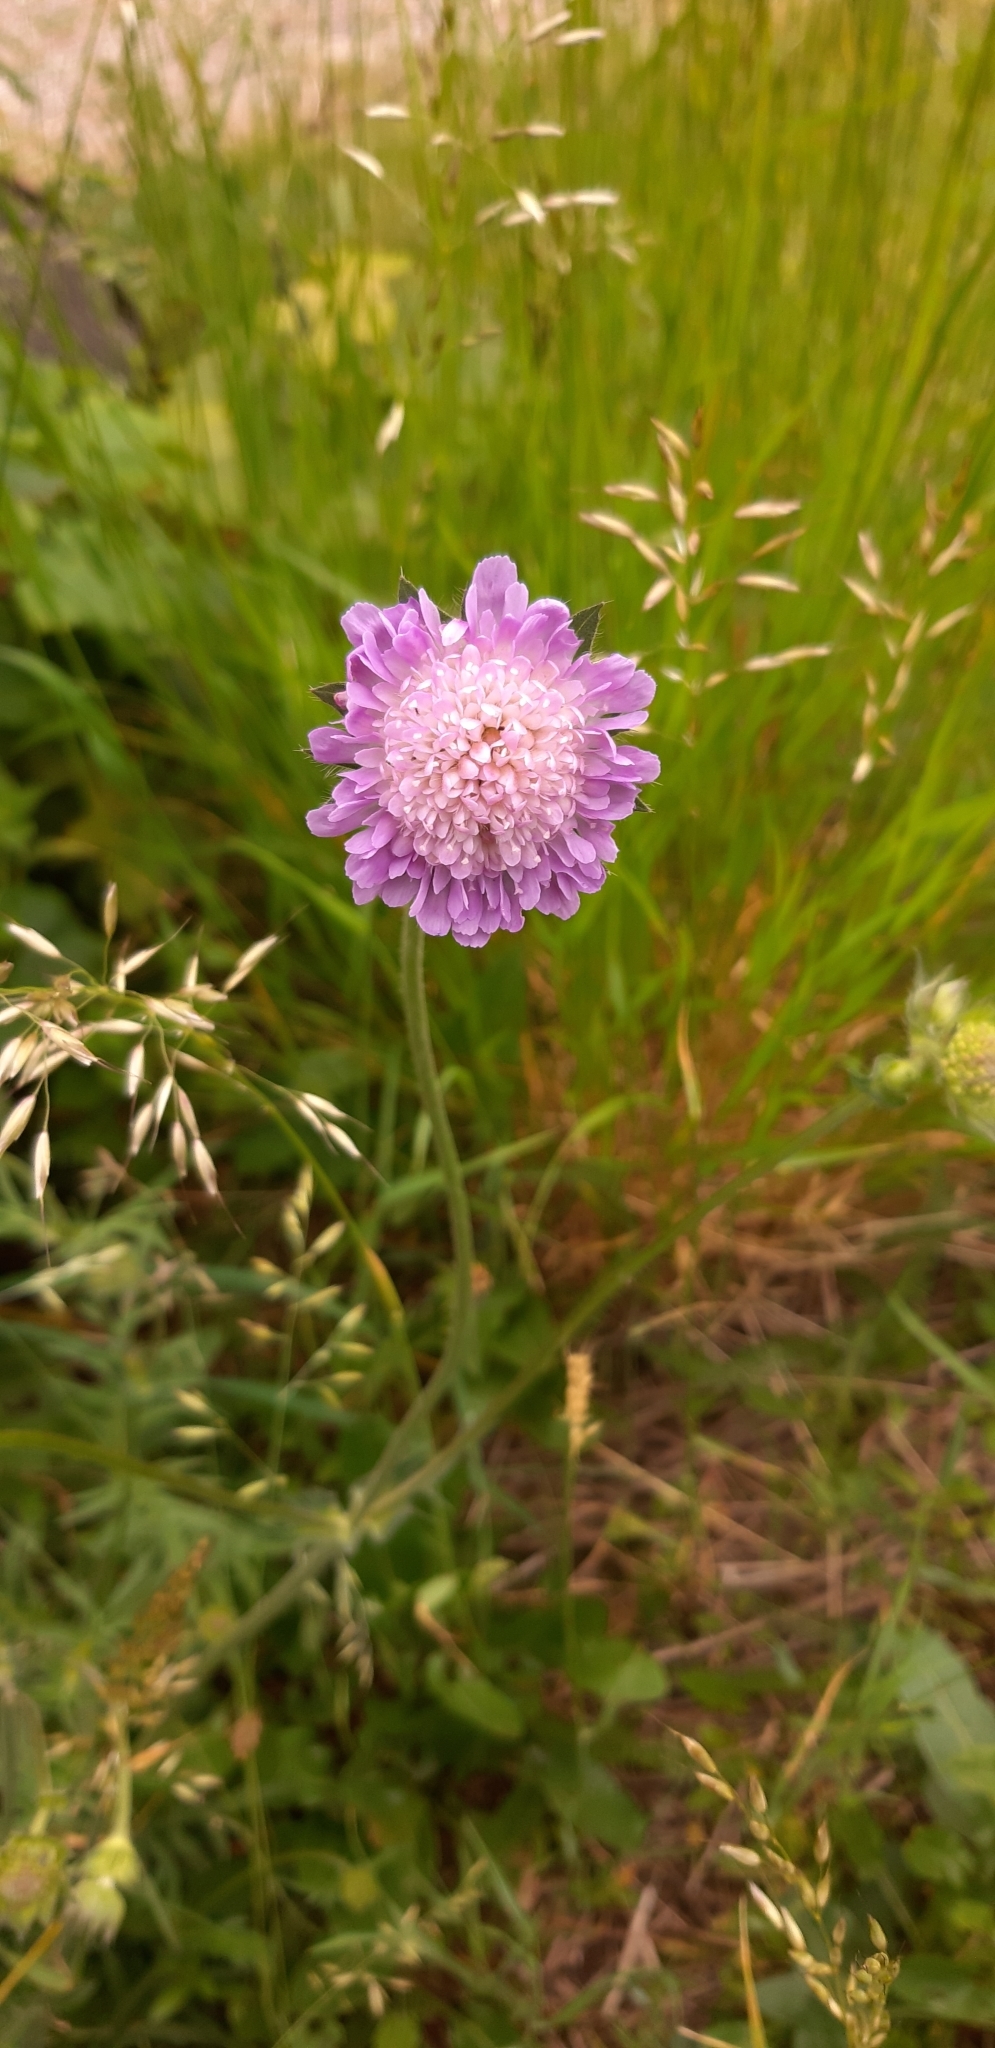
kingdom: Plantae
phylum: Tracheophyta
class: Magnoliopsida
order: Dipsacales
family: Caprifoliaceae
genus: Knautia
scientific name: Knautia arvensis
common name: Field scabiosa
